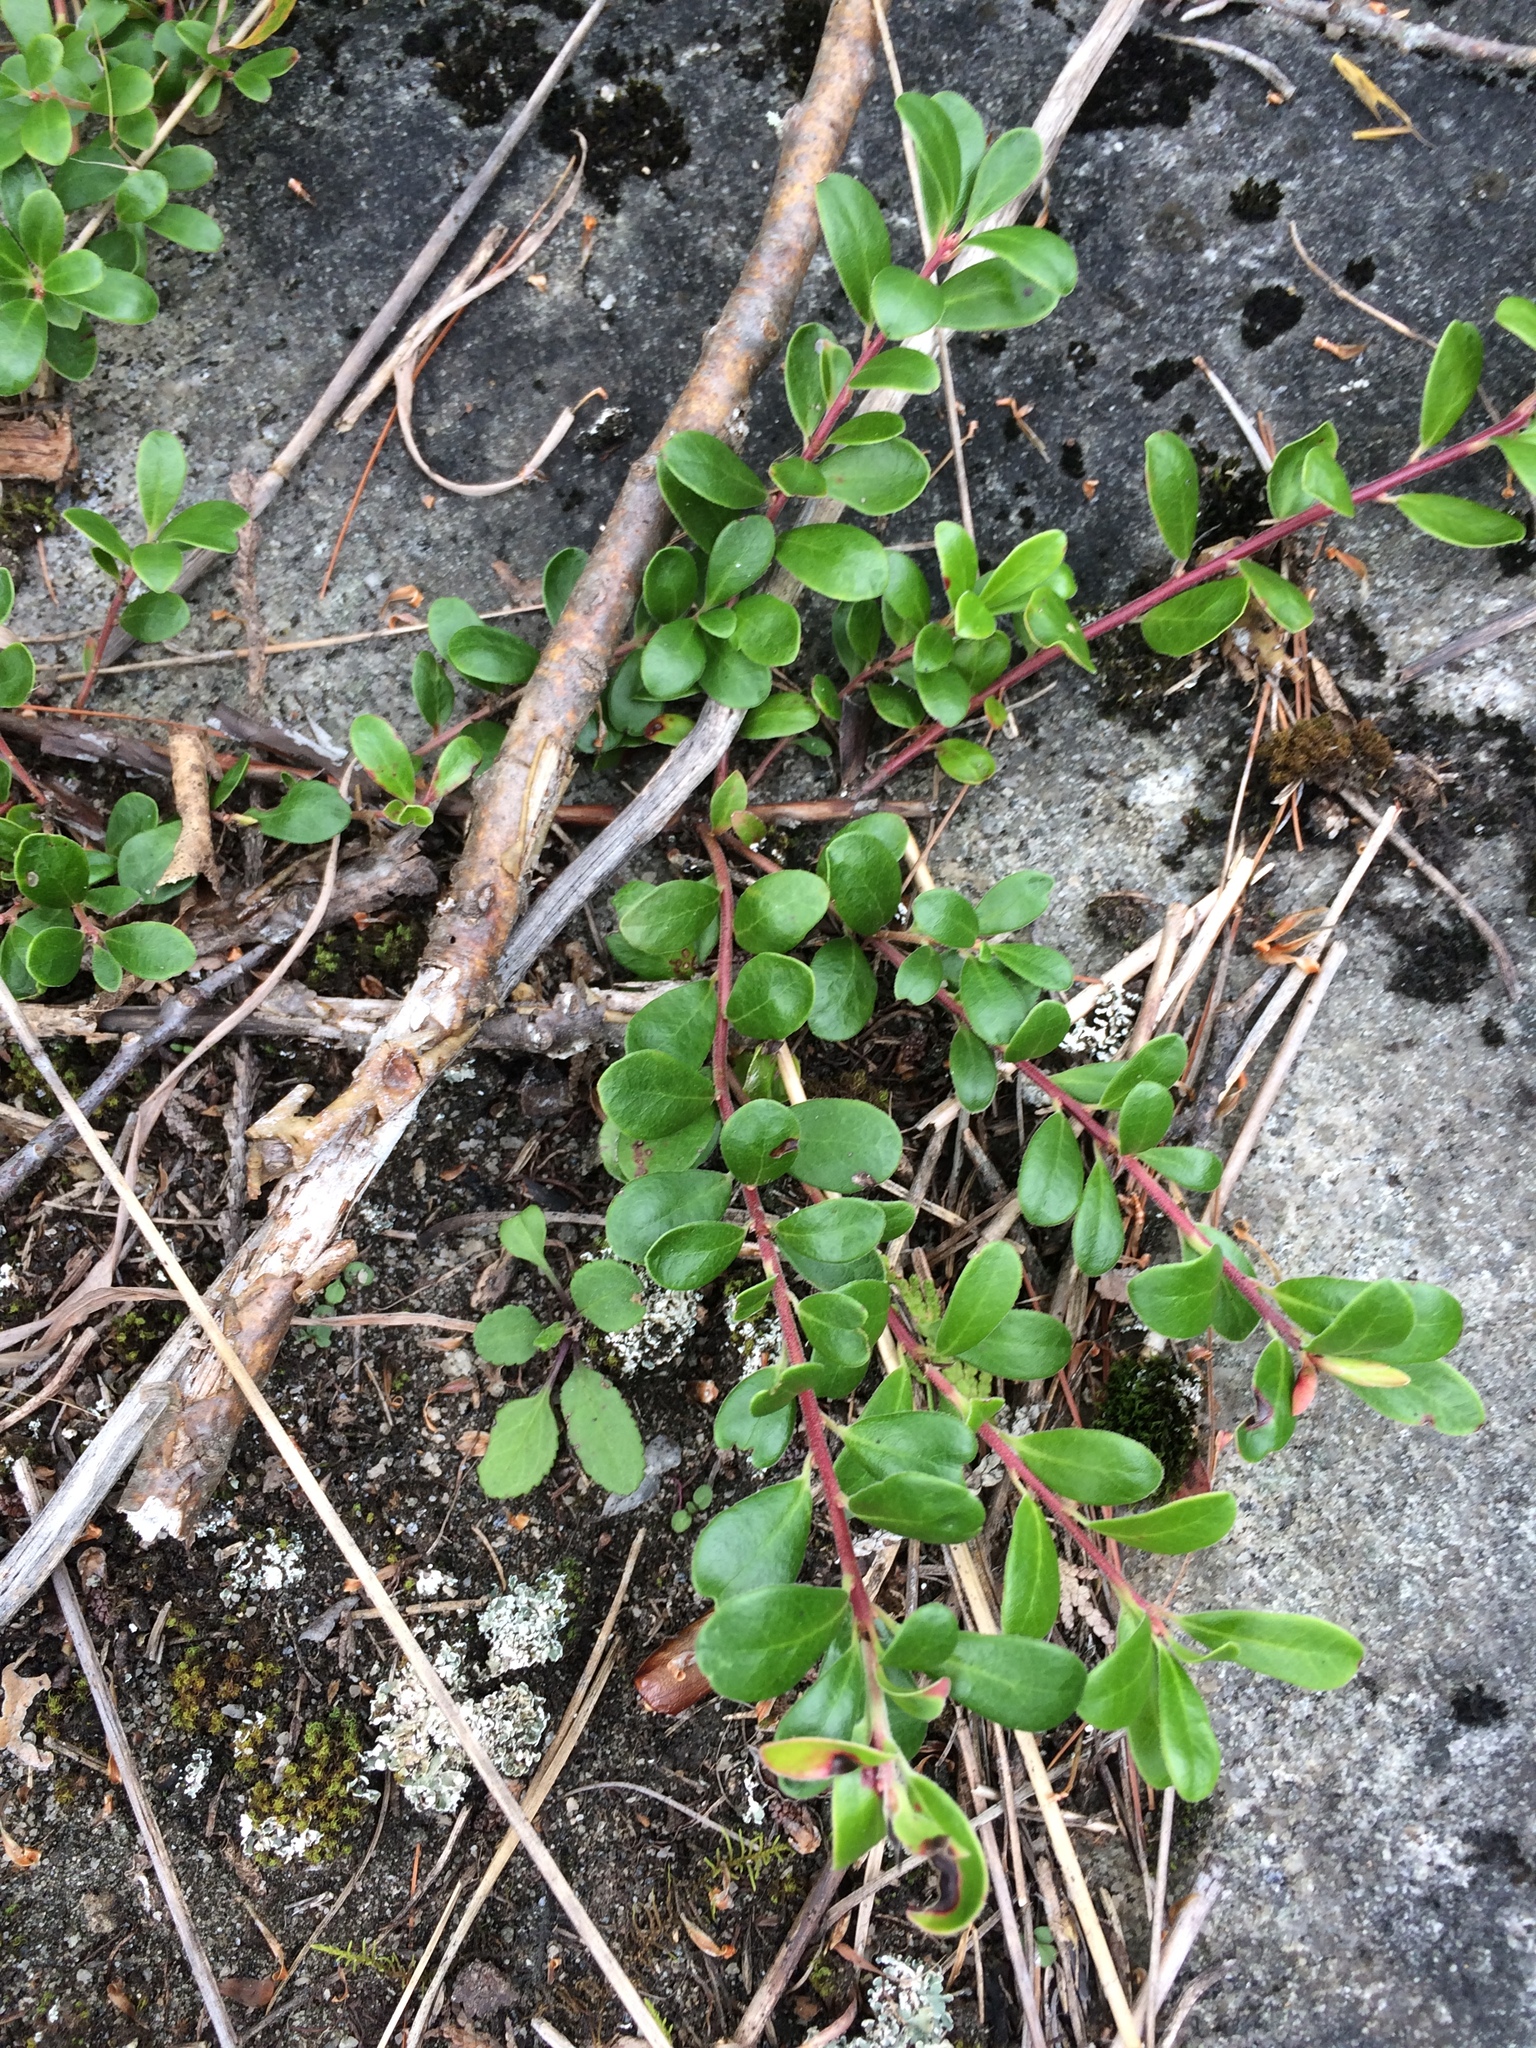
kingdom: Plantae
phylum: Tracheophyta
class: Magnoliopsida
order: Ericales
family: Ericaceae
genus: Arctostaphylos
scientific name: Arctostaphylos uva-ursi
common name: Bearberry
